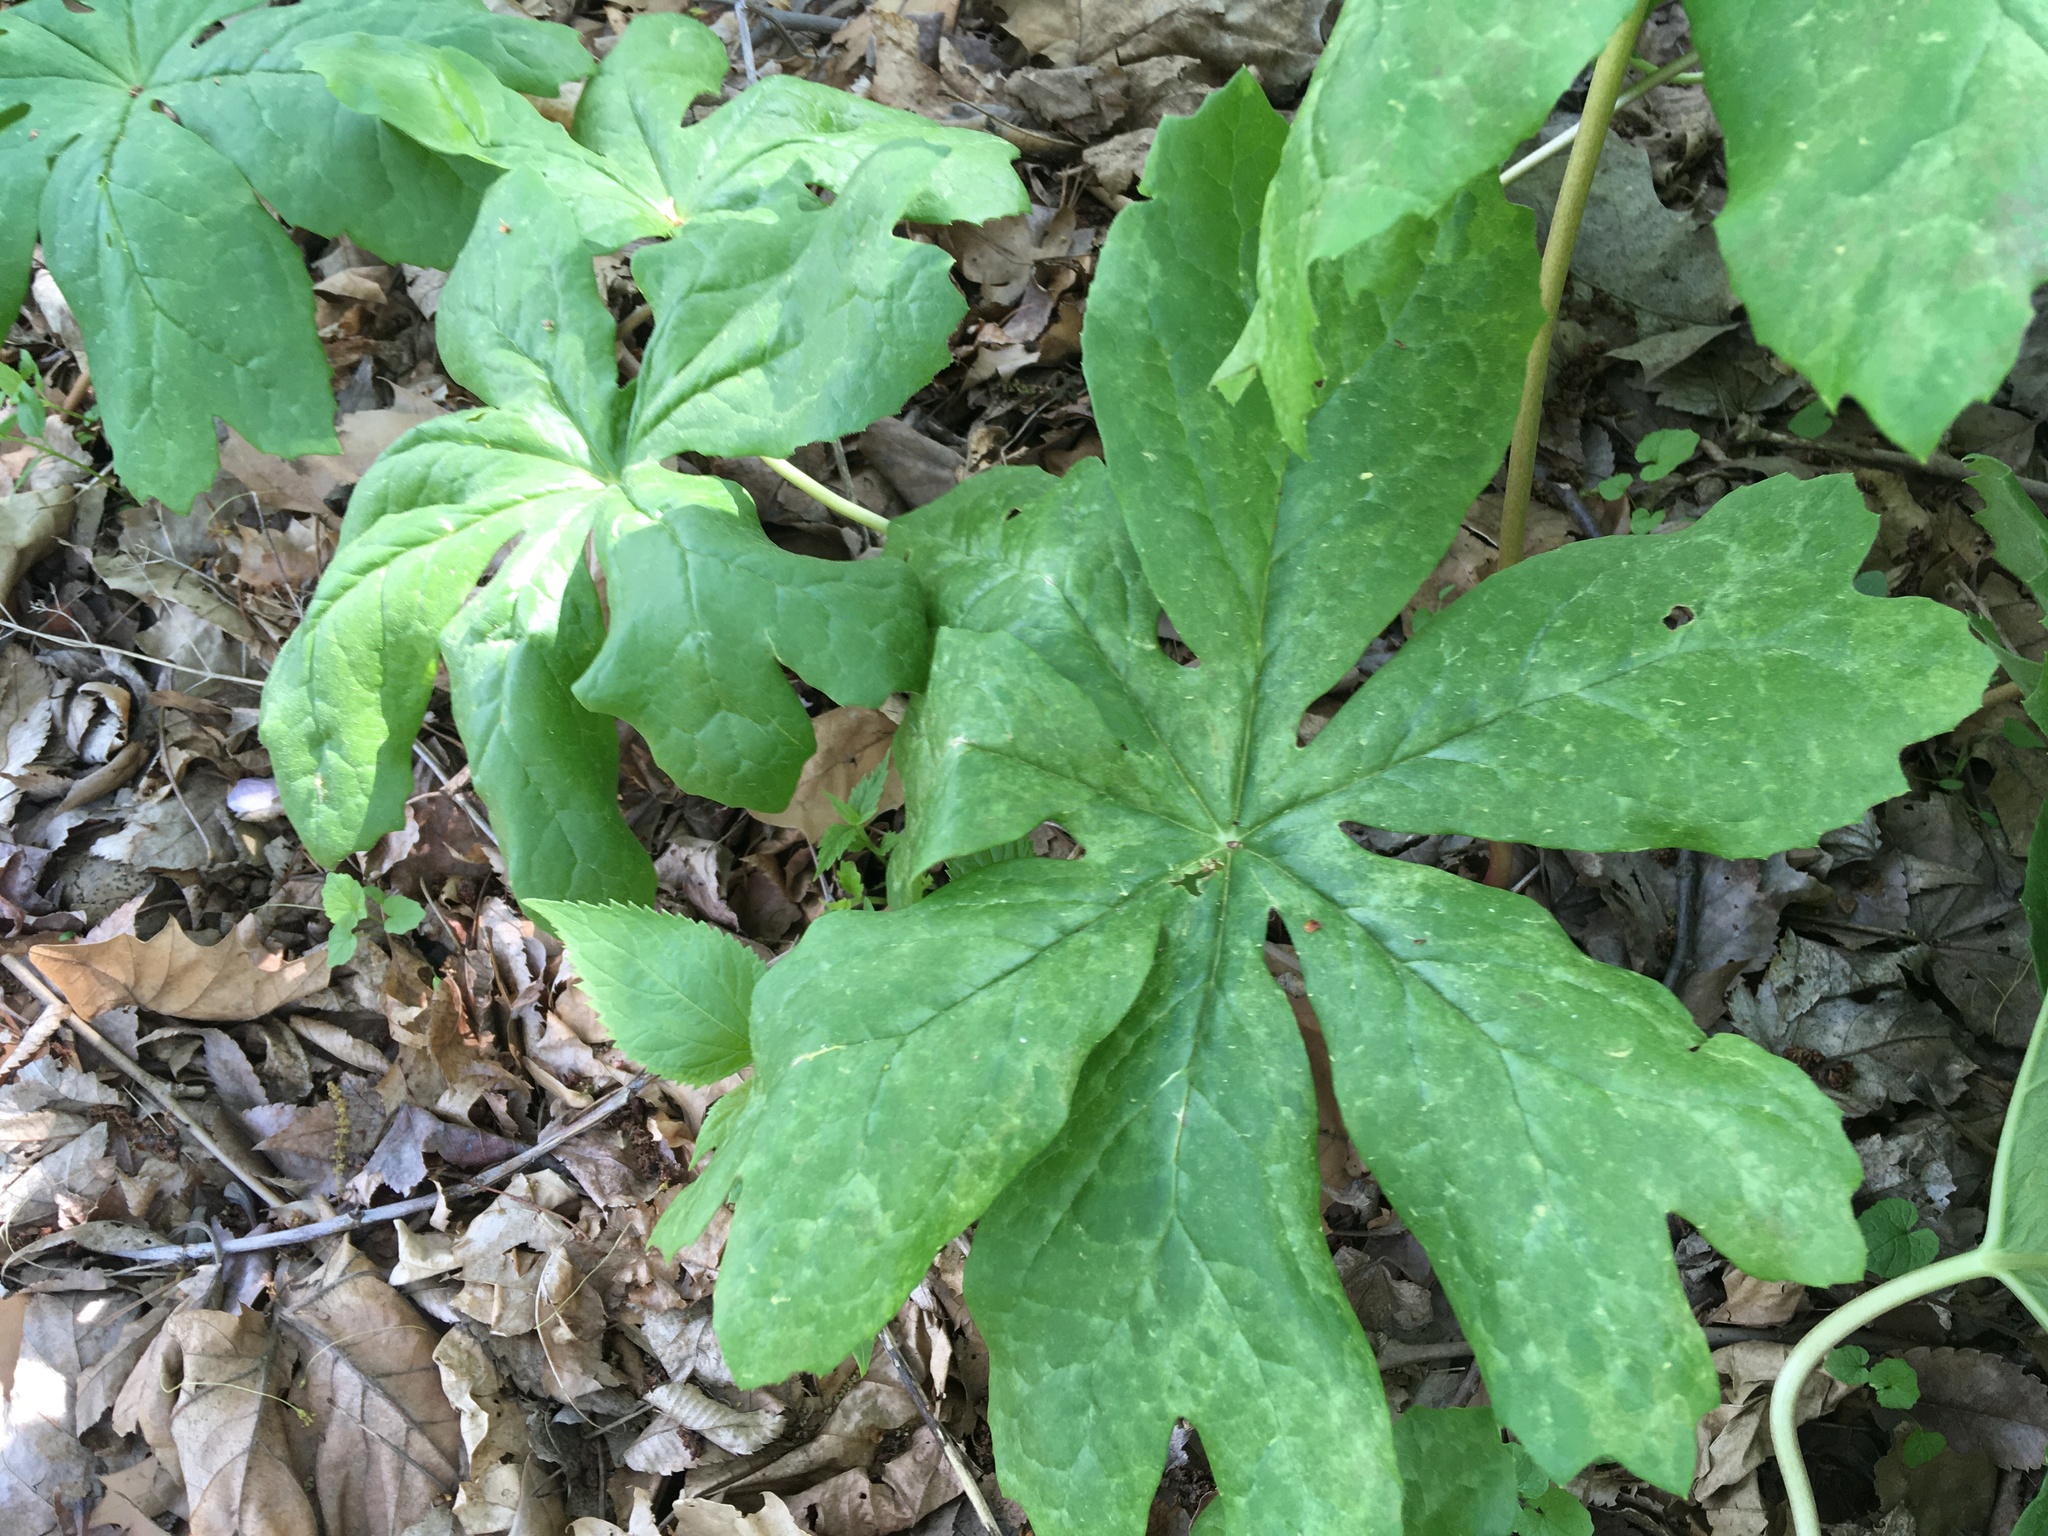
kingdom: Plantae
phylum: Tracheophyta
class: Magnoliopsida
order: Ranunculales
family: Berberidaceae
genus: Podophyllum
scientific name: Podophyllum peltatum
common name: Wild mandrake
